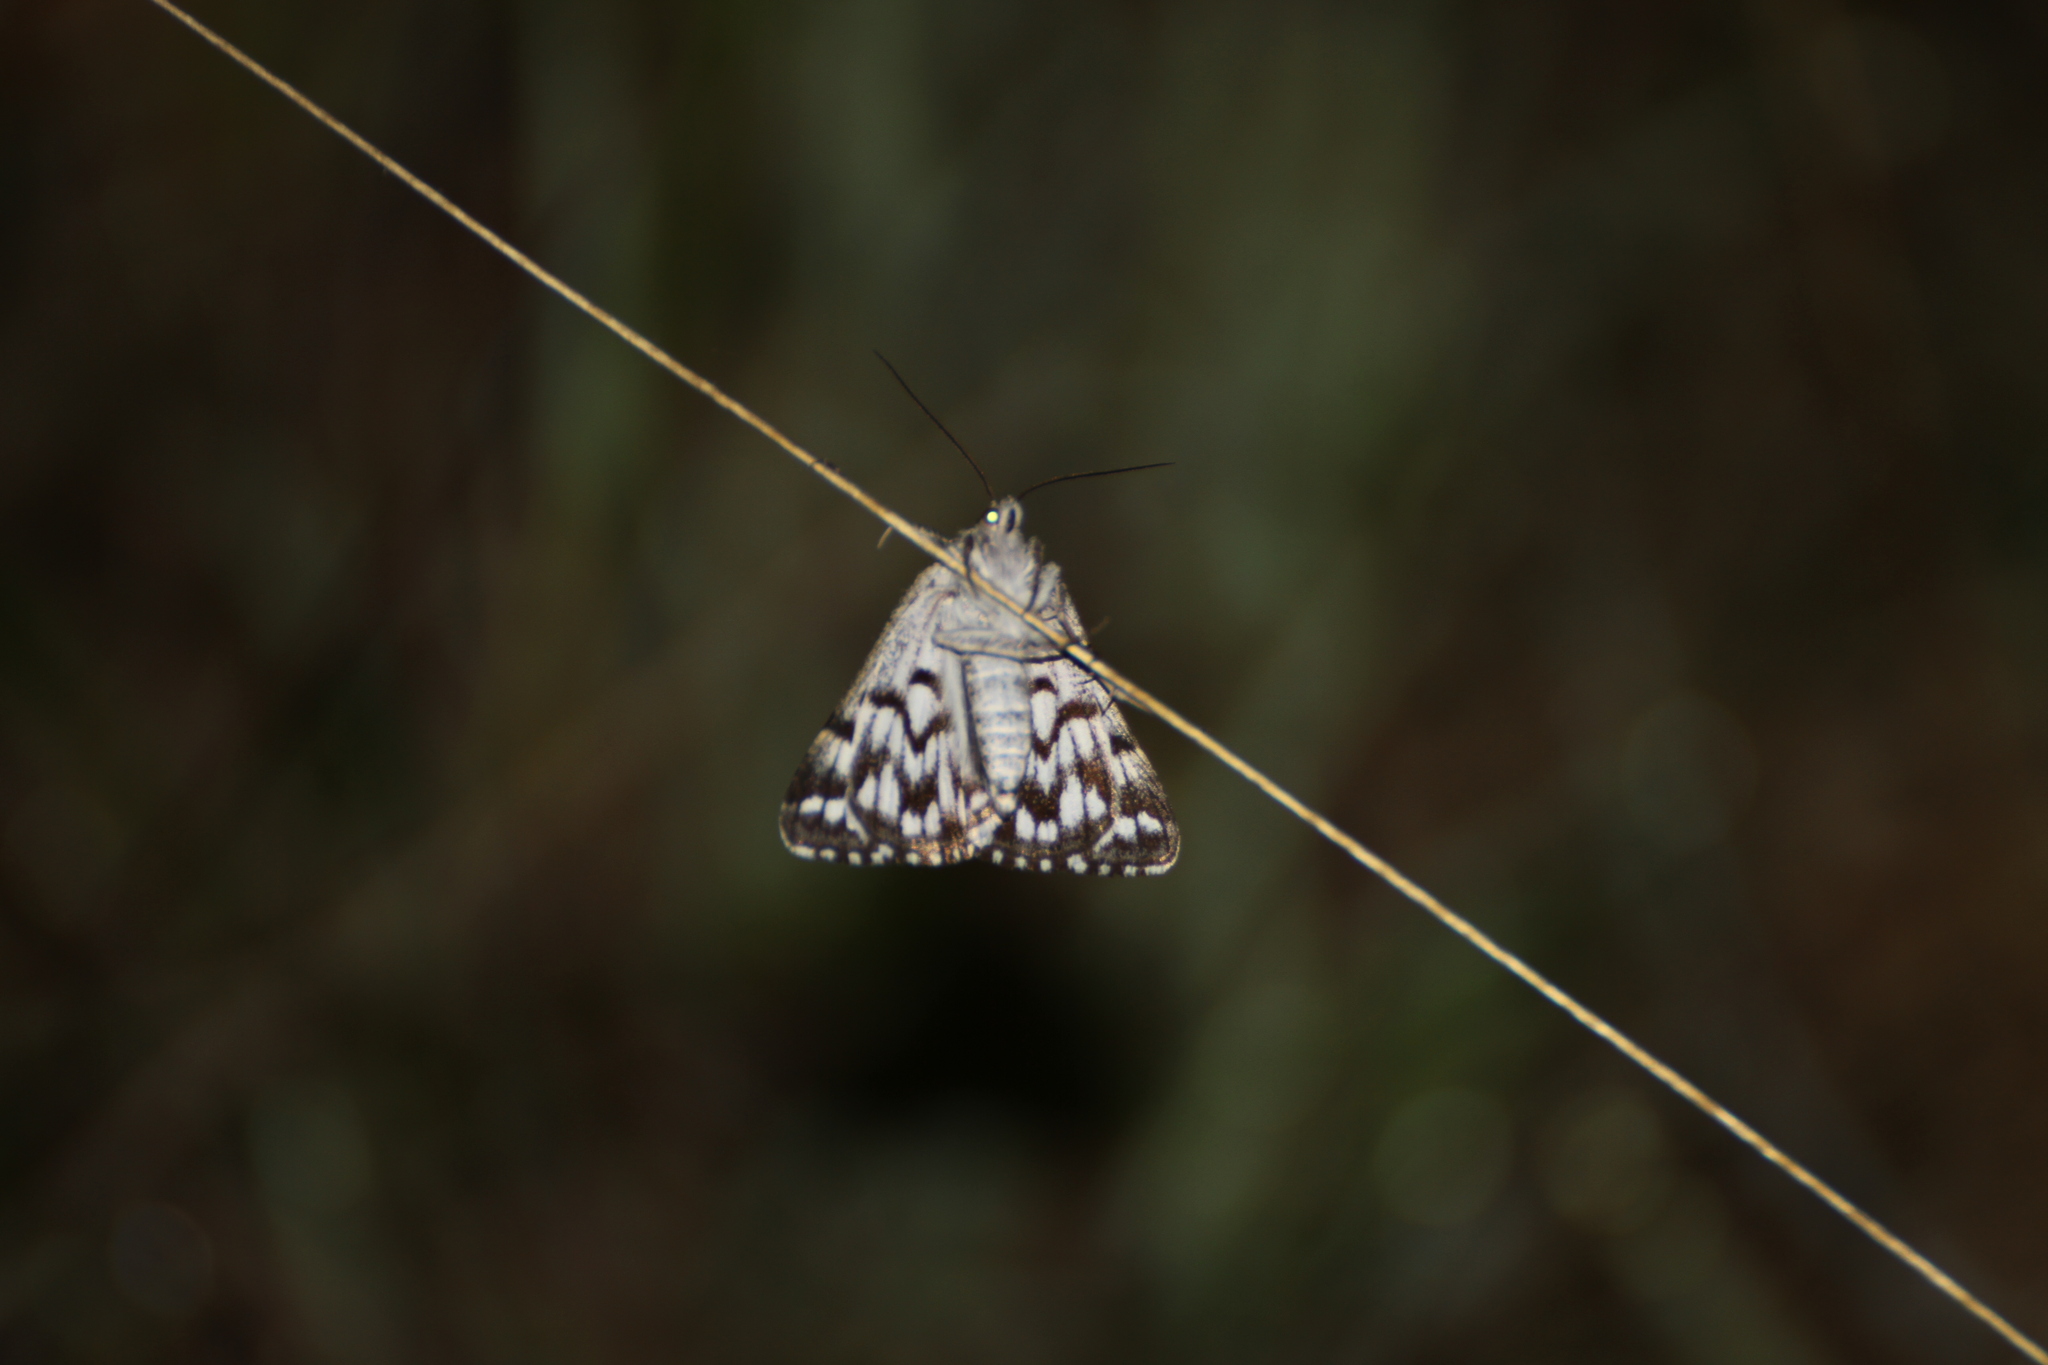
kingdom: Animalia
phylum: Arthropoda
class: Insecta
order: Lepidoptera
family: Erebidae
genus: Callistege
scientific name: Callistege mi
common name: Mother shipton
